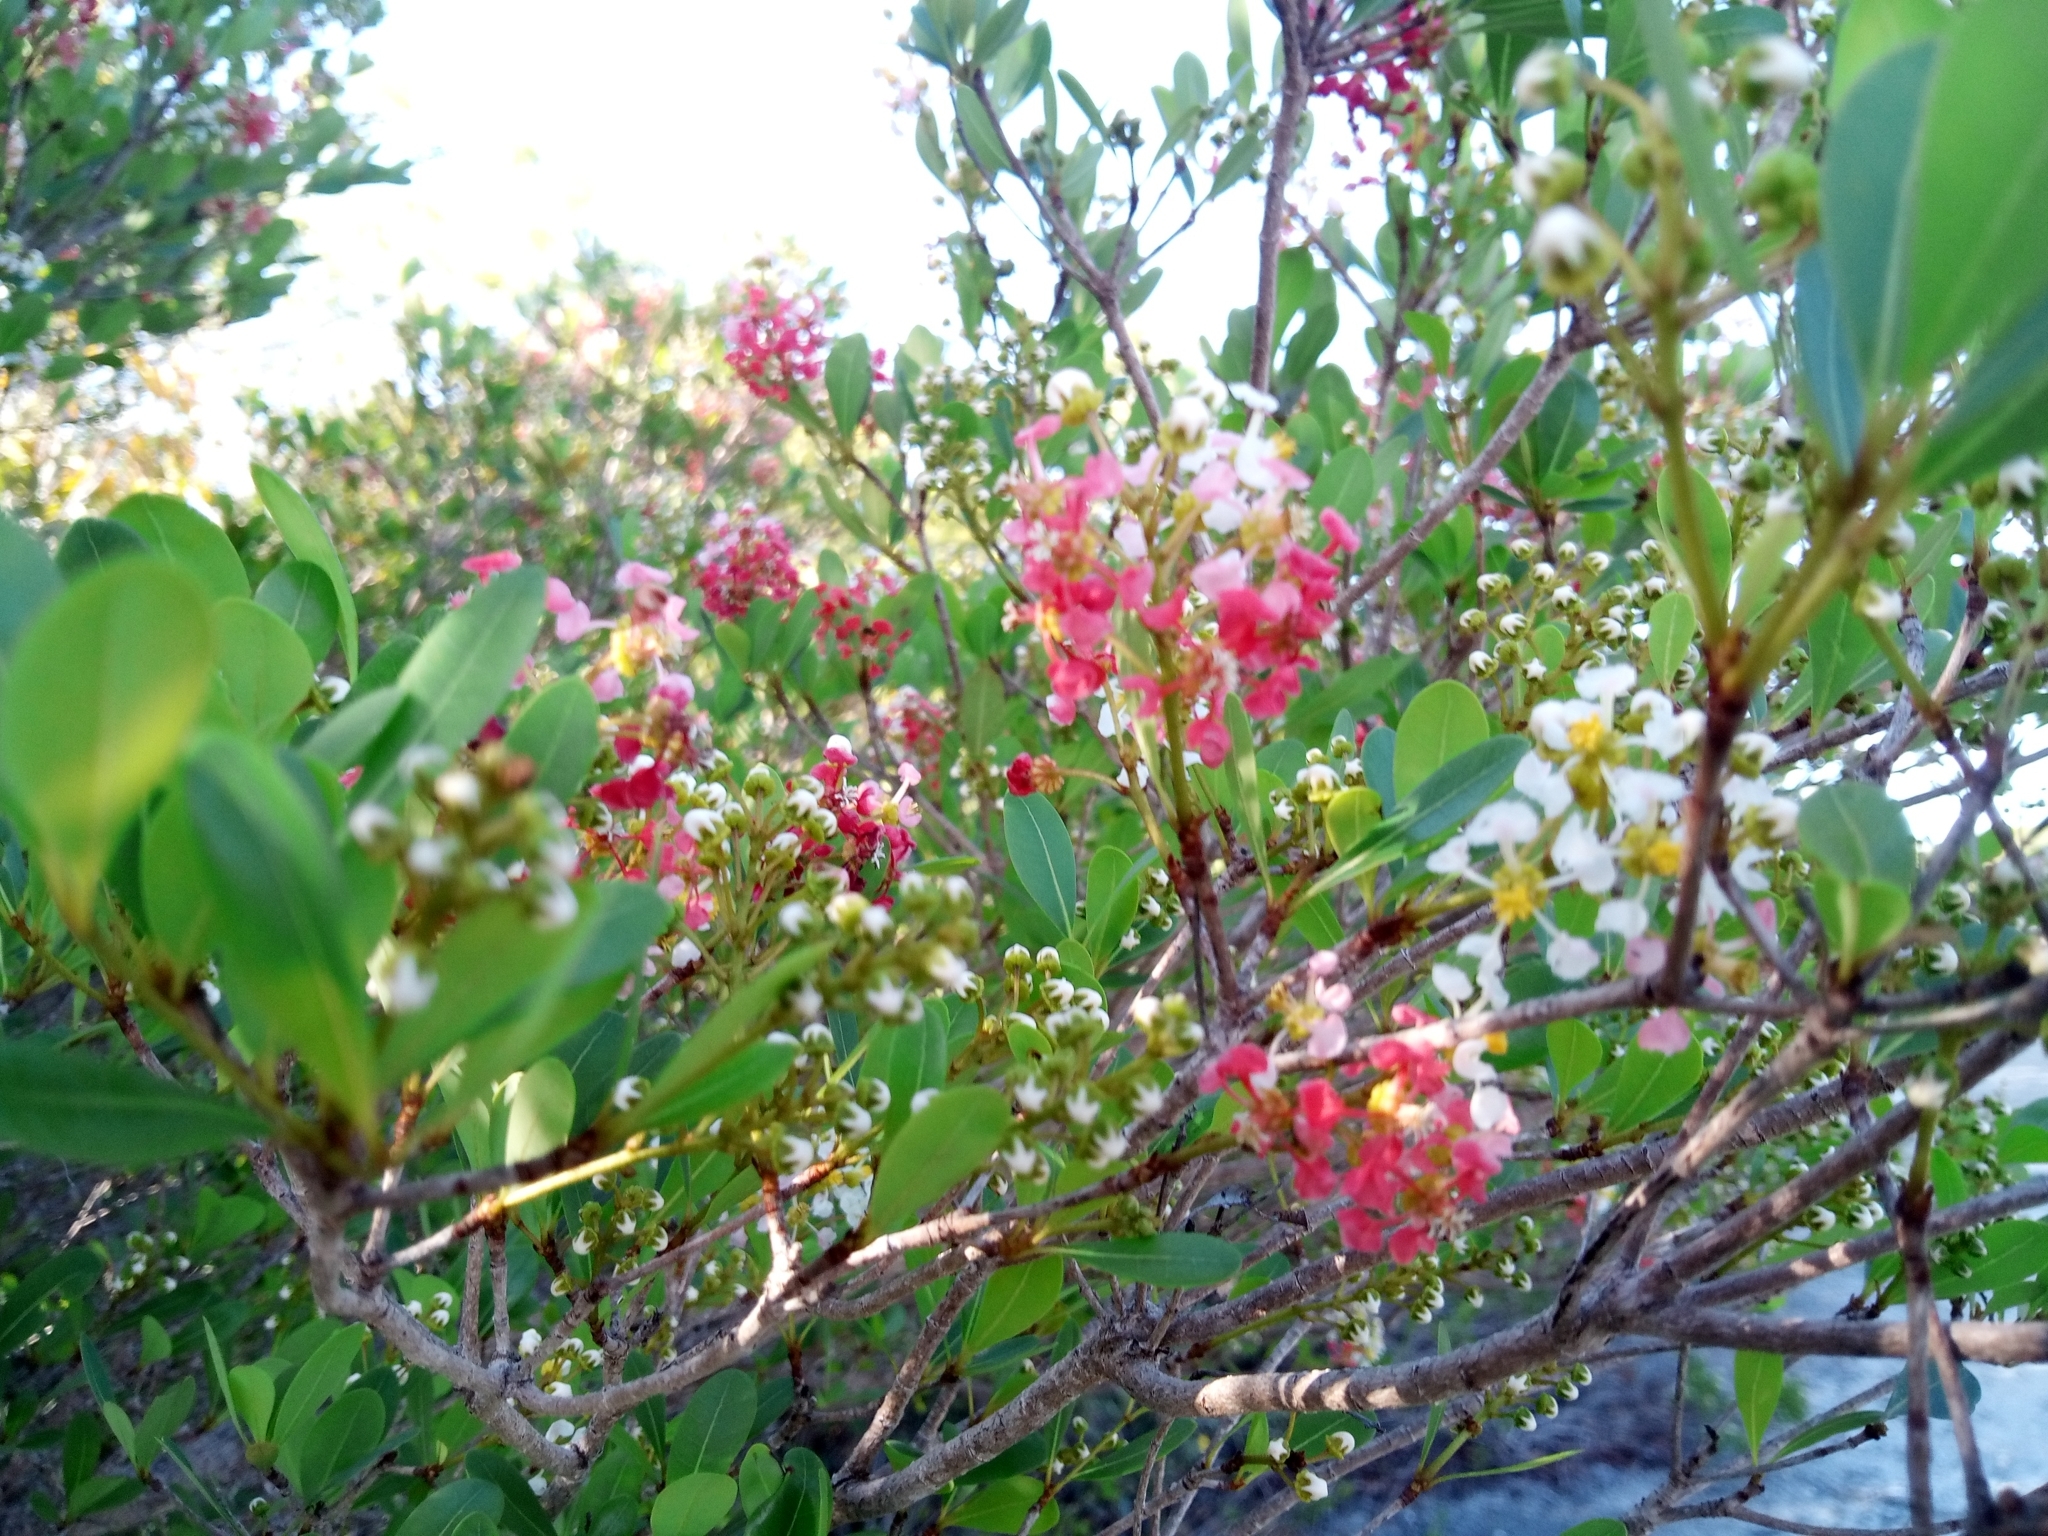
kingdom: Plantae
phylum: Tracheophyta
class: Magnoliopsida
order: Malpighiales
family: Malpighiaceae
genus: Byrsonima
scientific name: Byrsonima lucida
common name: Clam-cherry
